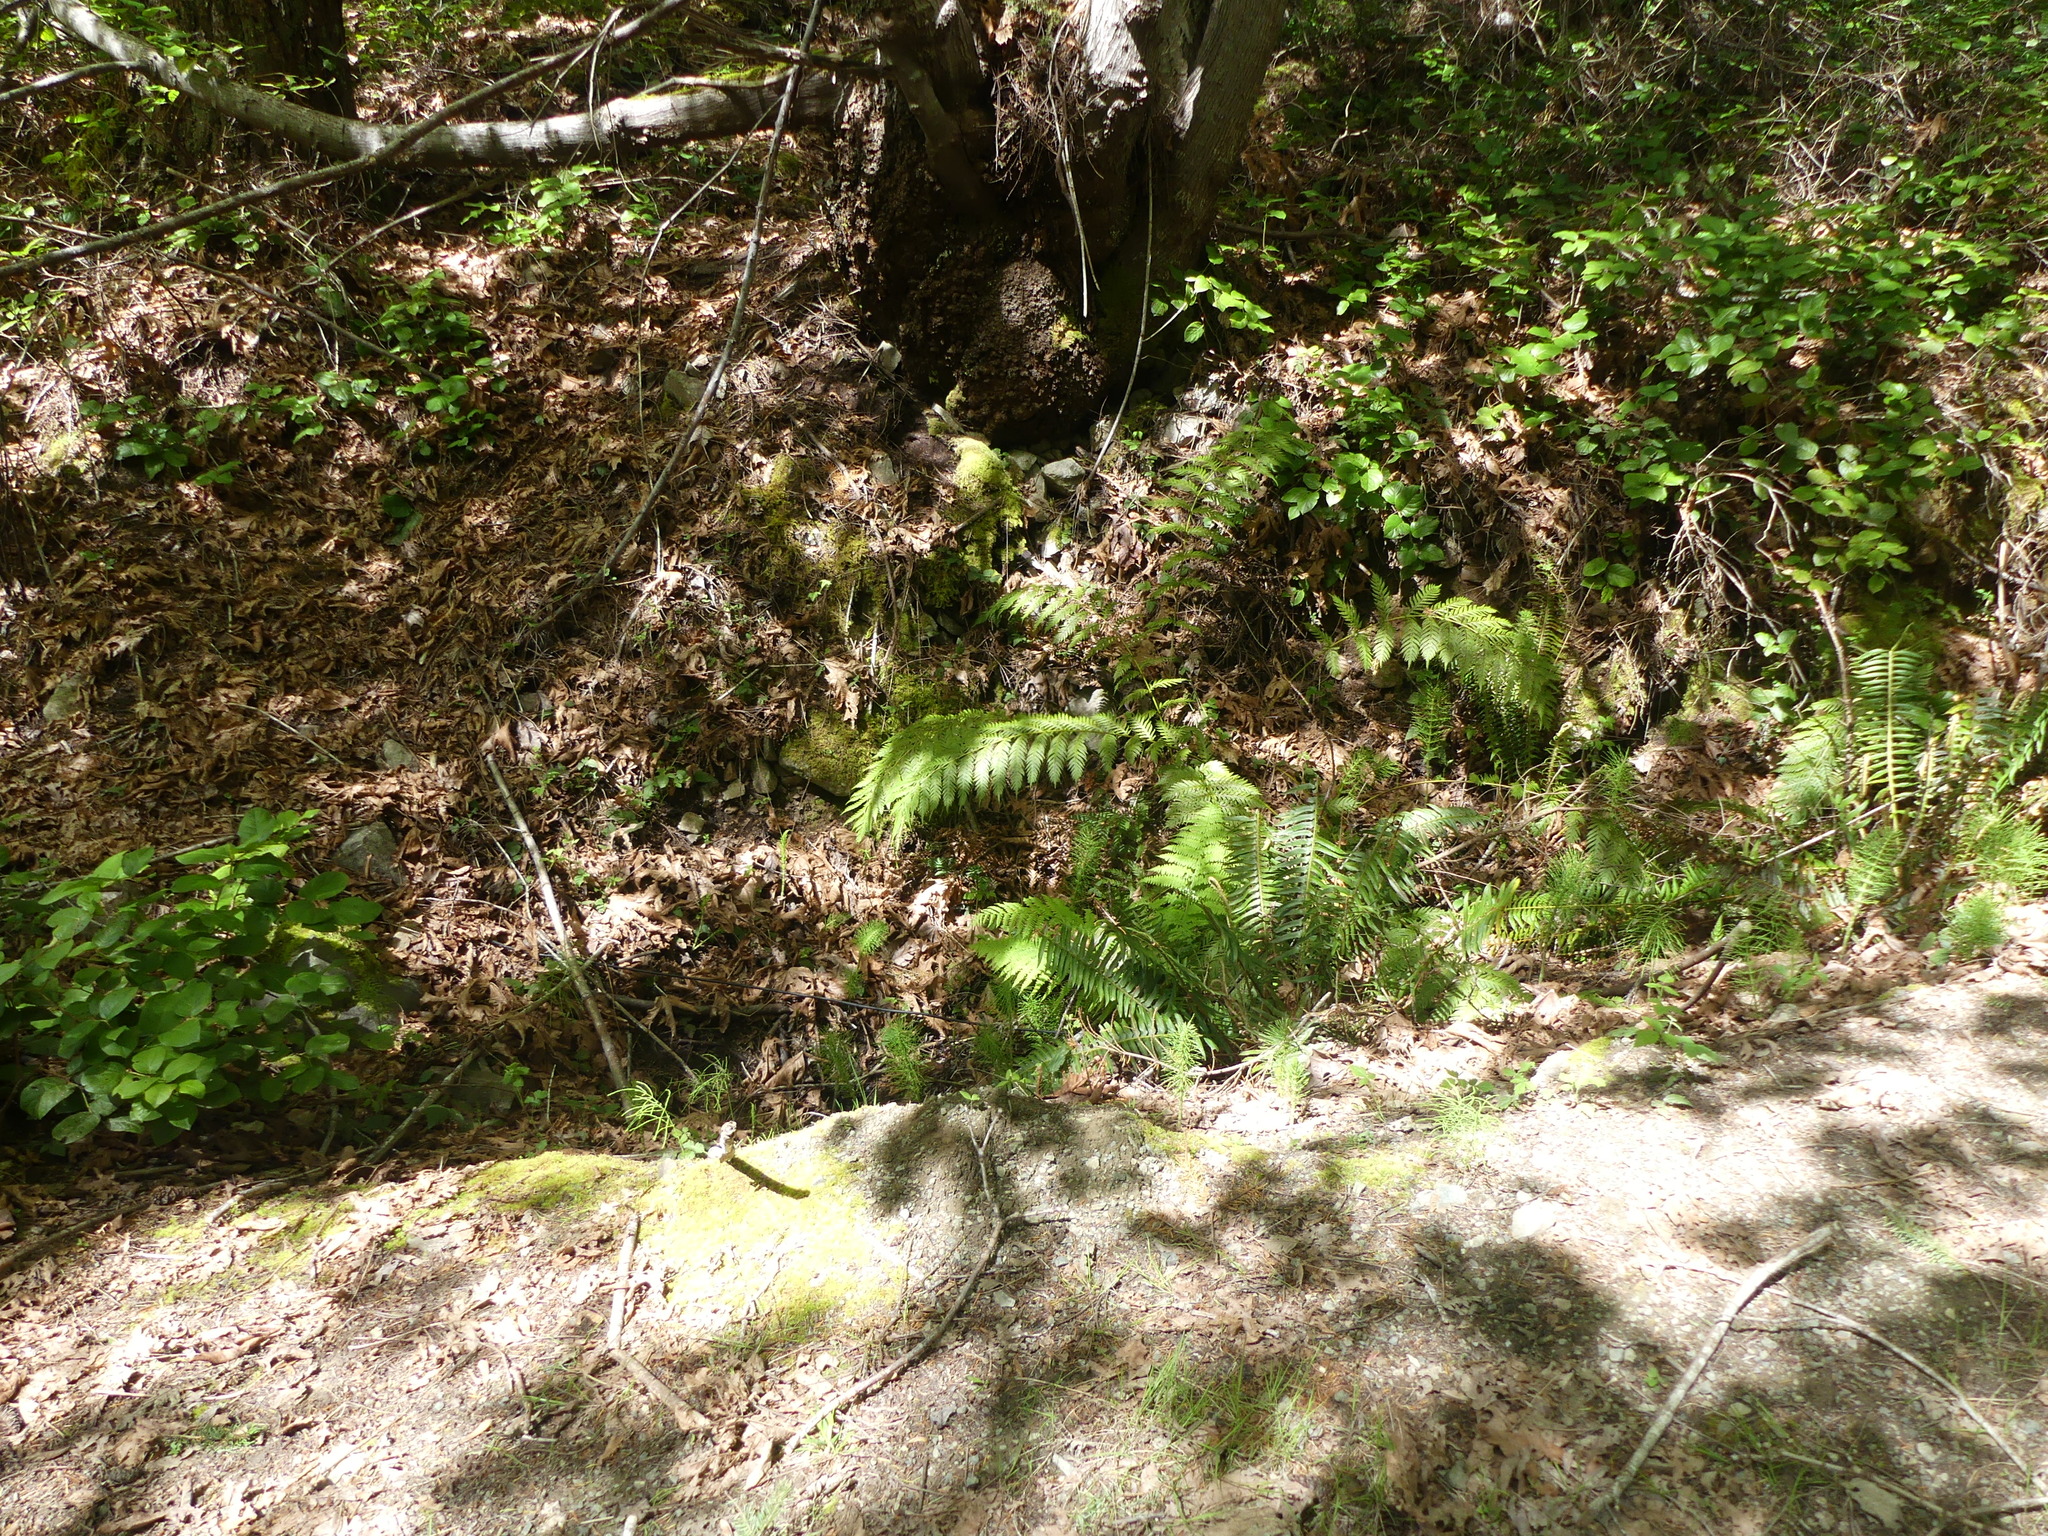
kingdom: Plantae
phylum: Tracheophyta
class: Polypodiopsida
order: Polypodiales
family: Blechnaceae
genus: Woodwardia
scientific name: Woodwardia fimbriata
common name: Giant chain fern
